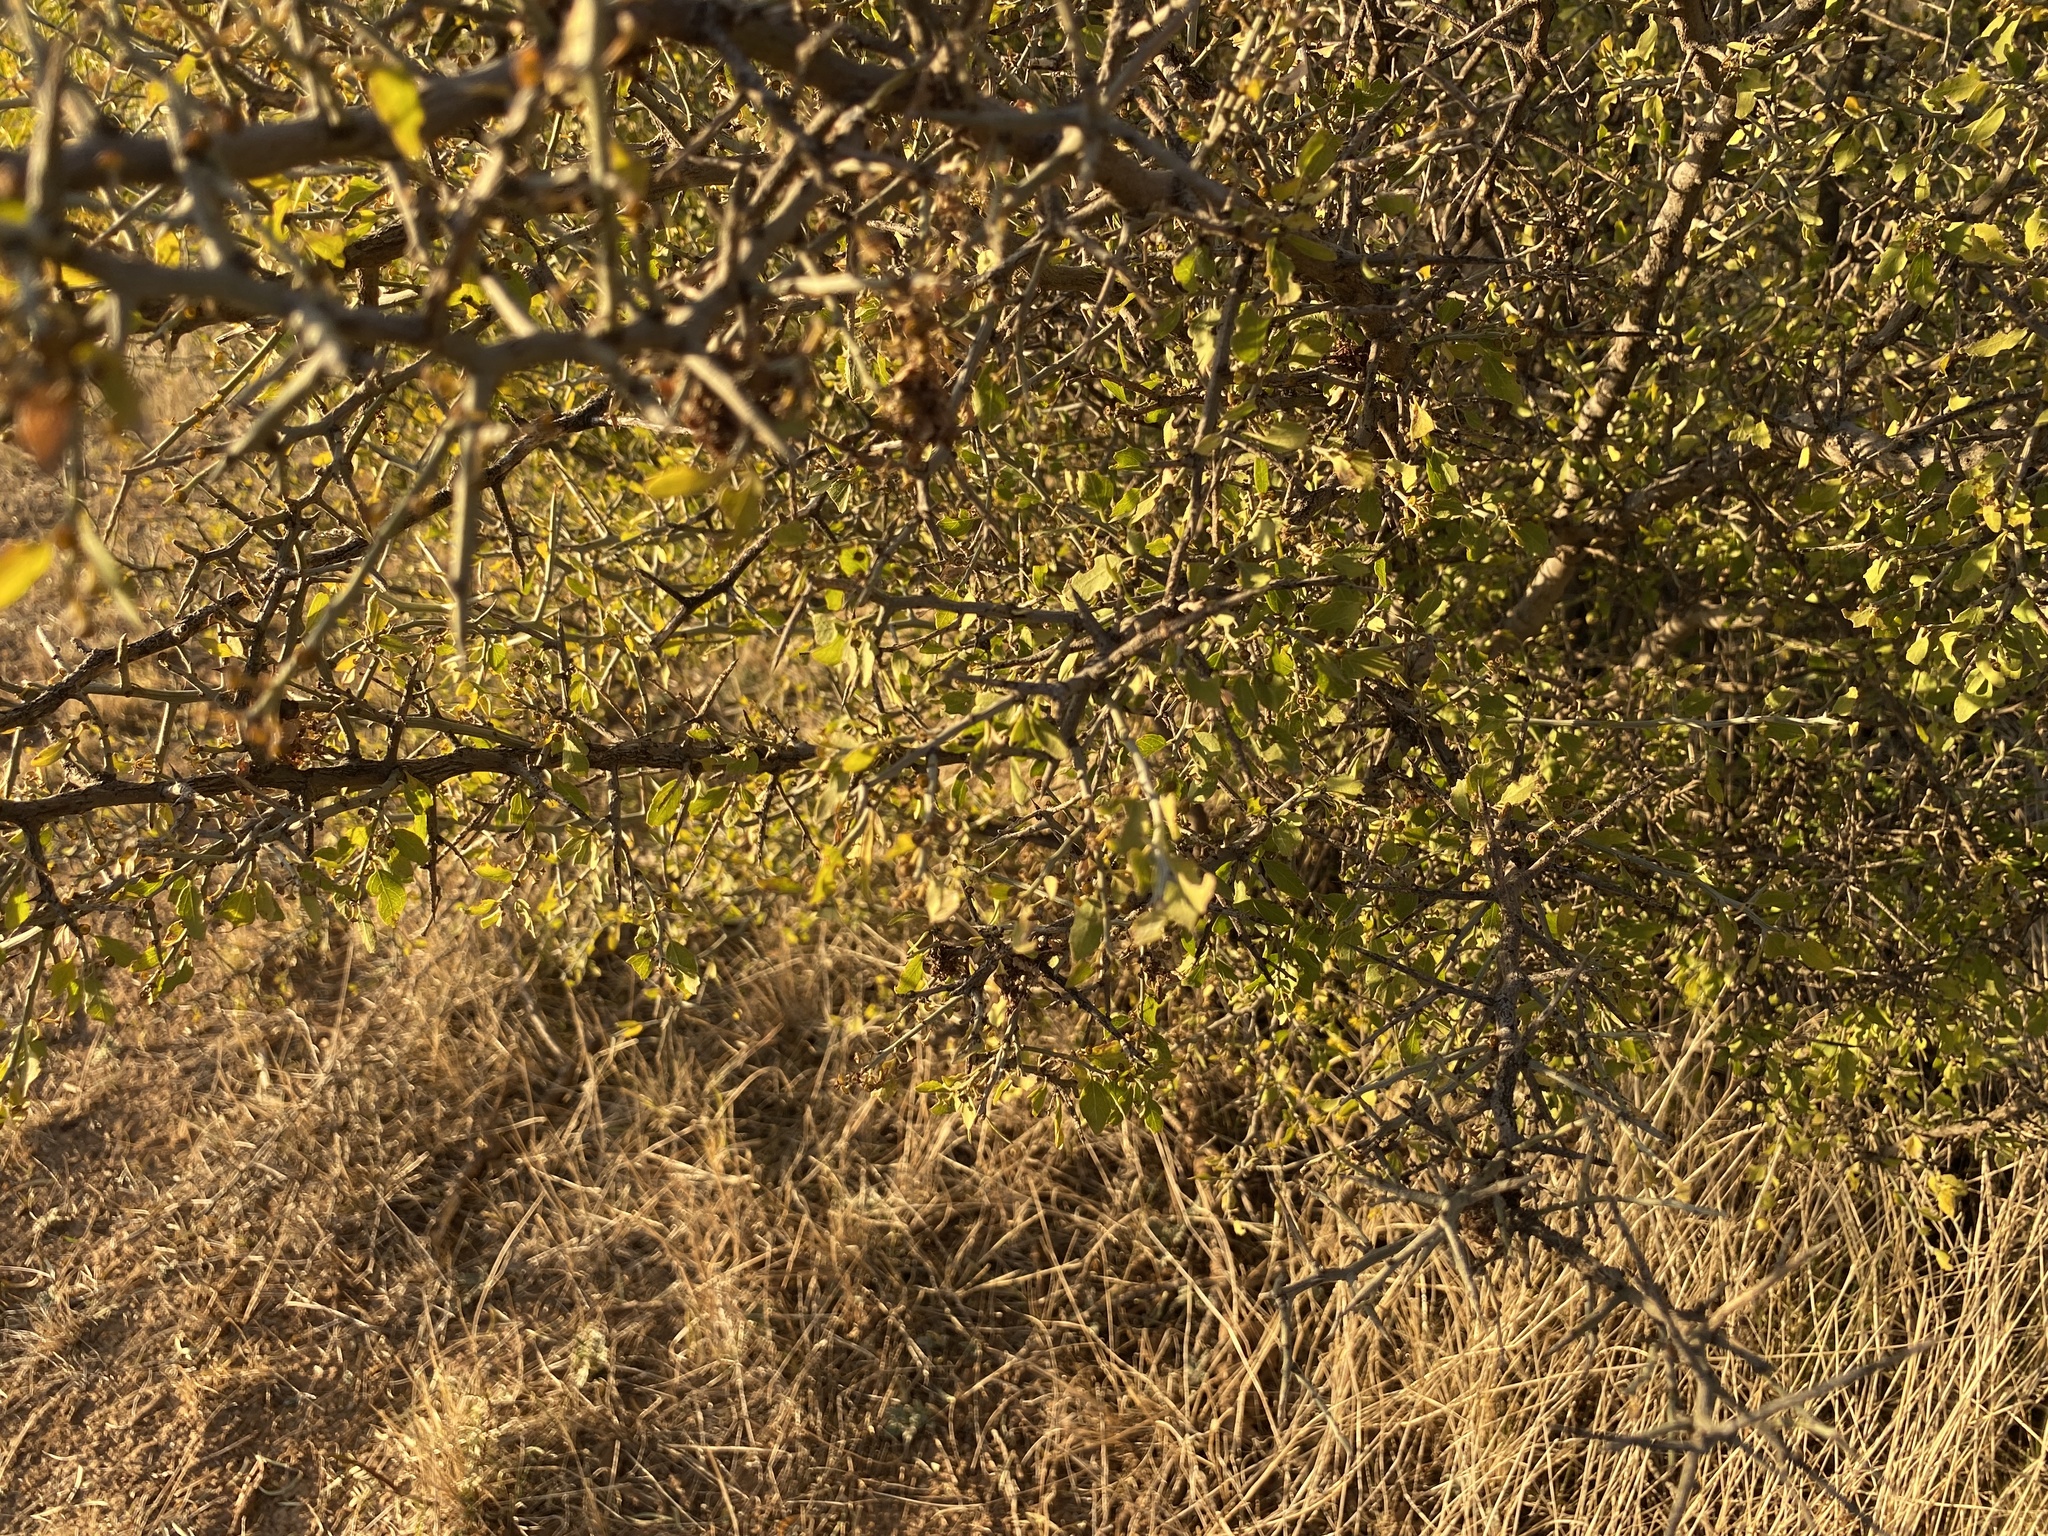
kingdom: Plantae
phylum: Tracheophyta
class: Magnoliopsida
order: Rosales
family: Rhamnaceae
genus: Sarcomphalus
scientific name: Sarcomphalus obtusifolius
